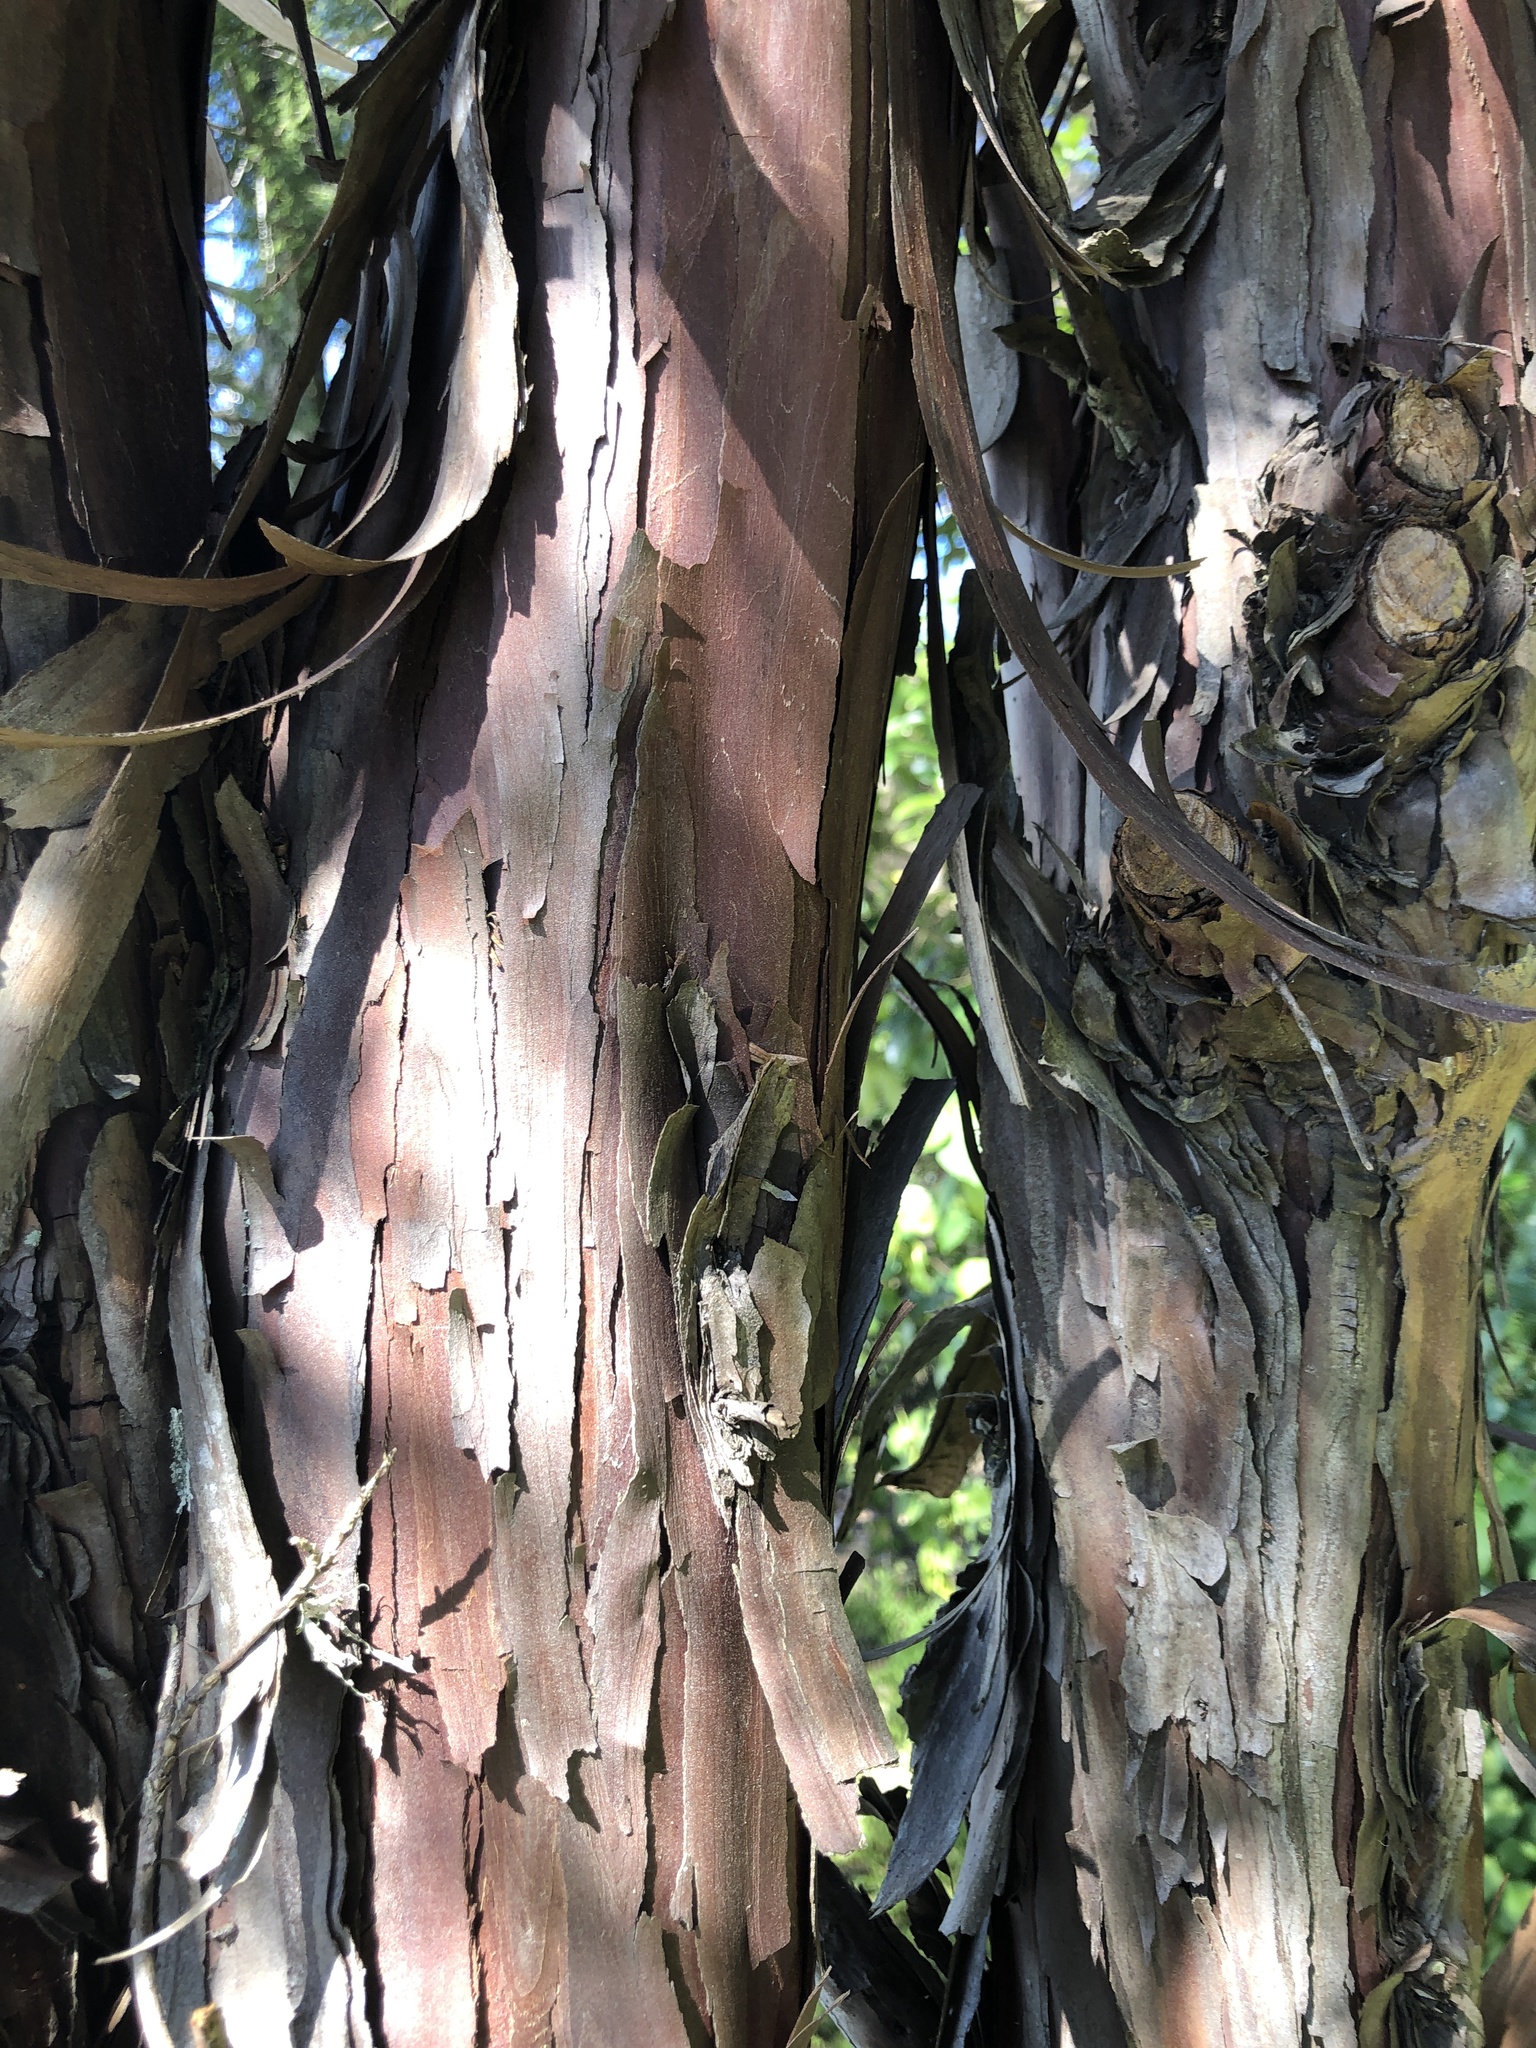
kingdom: Plantae
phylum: Tracheophyta
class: Pinopsida
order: Pinales
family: Cupressaceae
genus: Libocedrus
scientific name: Libocedrus plumosa
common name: New zealand cedar
